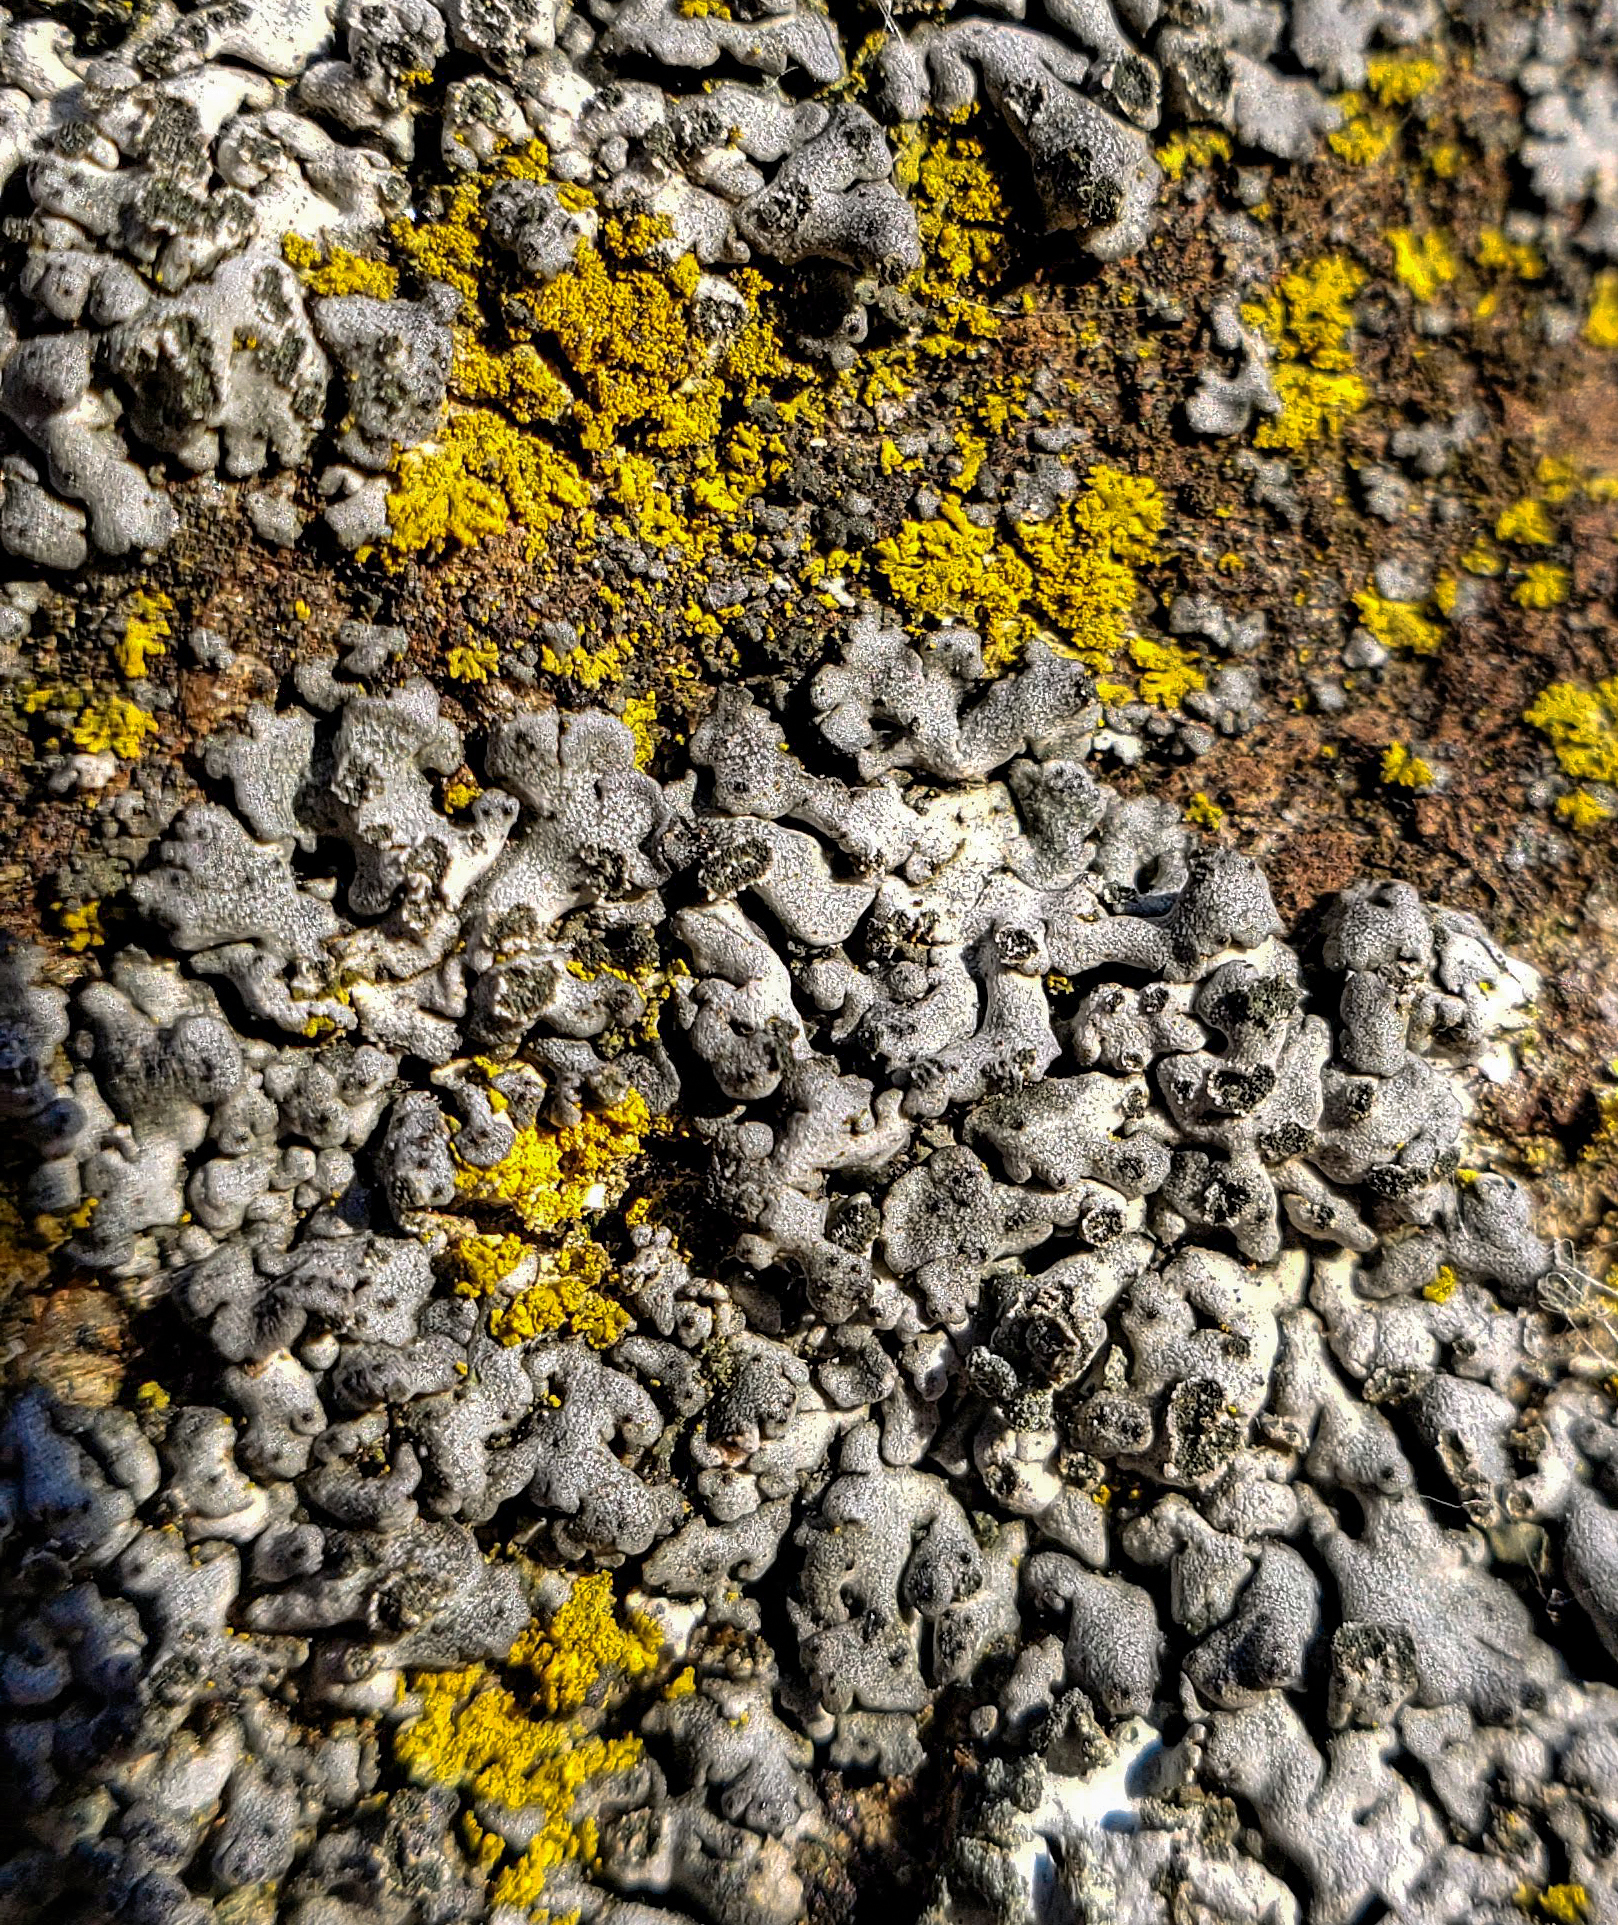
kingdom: Fungi
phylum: Ascomycota
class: Lecanoromycetes
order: Caliciales
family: Physciaceae
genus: Phaeophyscia
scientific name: Phaeophyscia orbicularis
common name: Mealy shadow lichen
